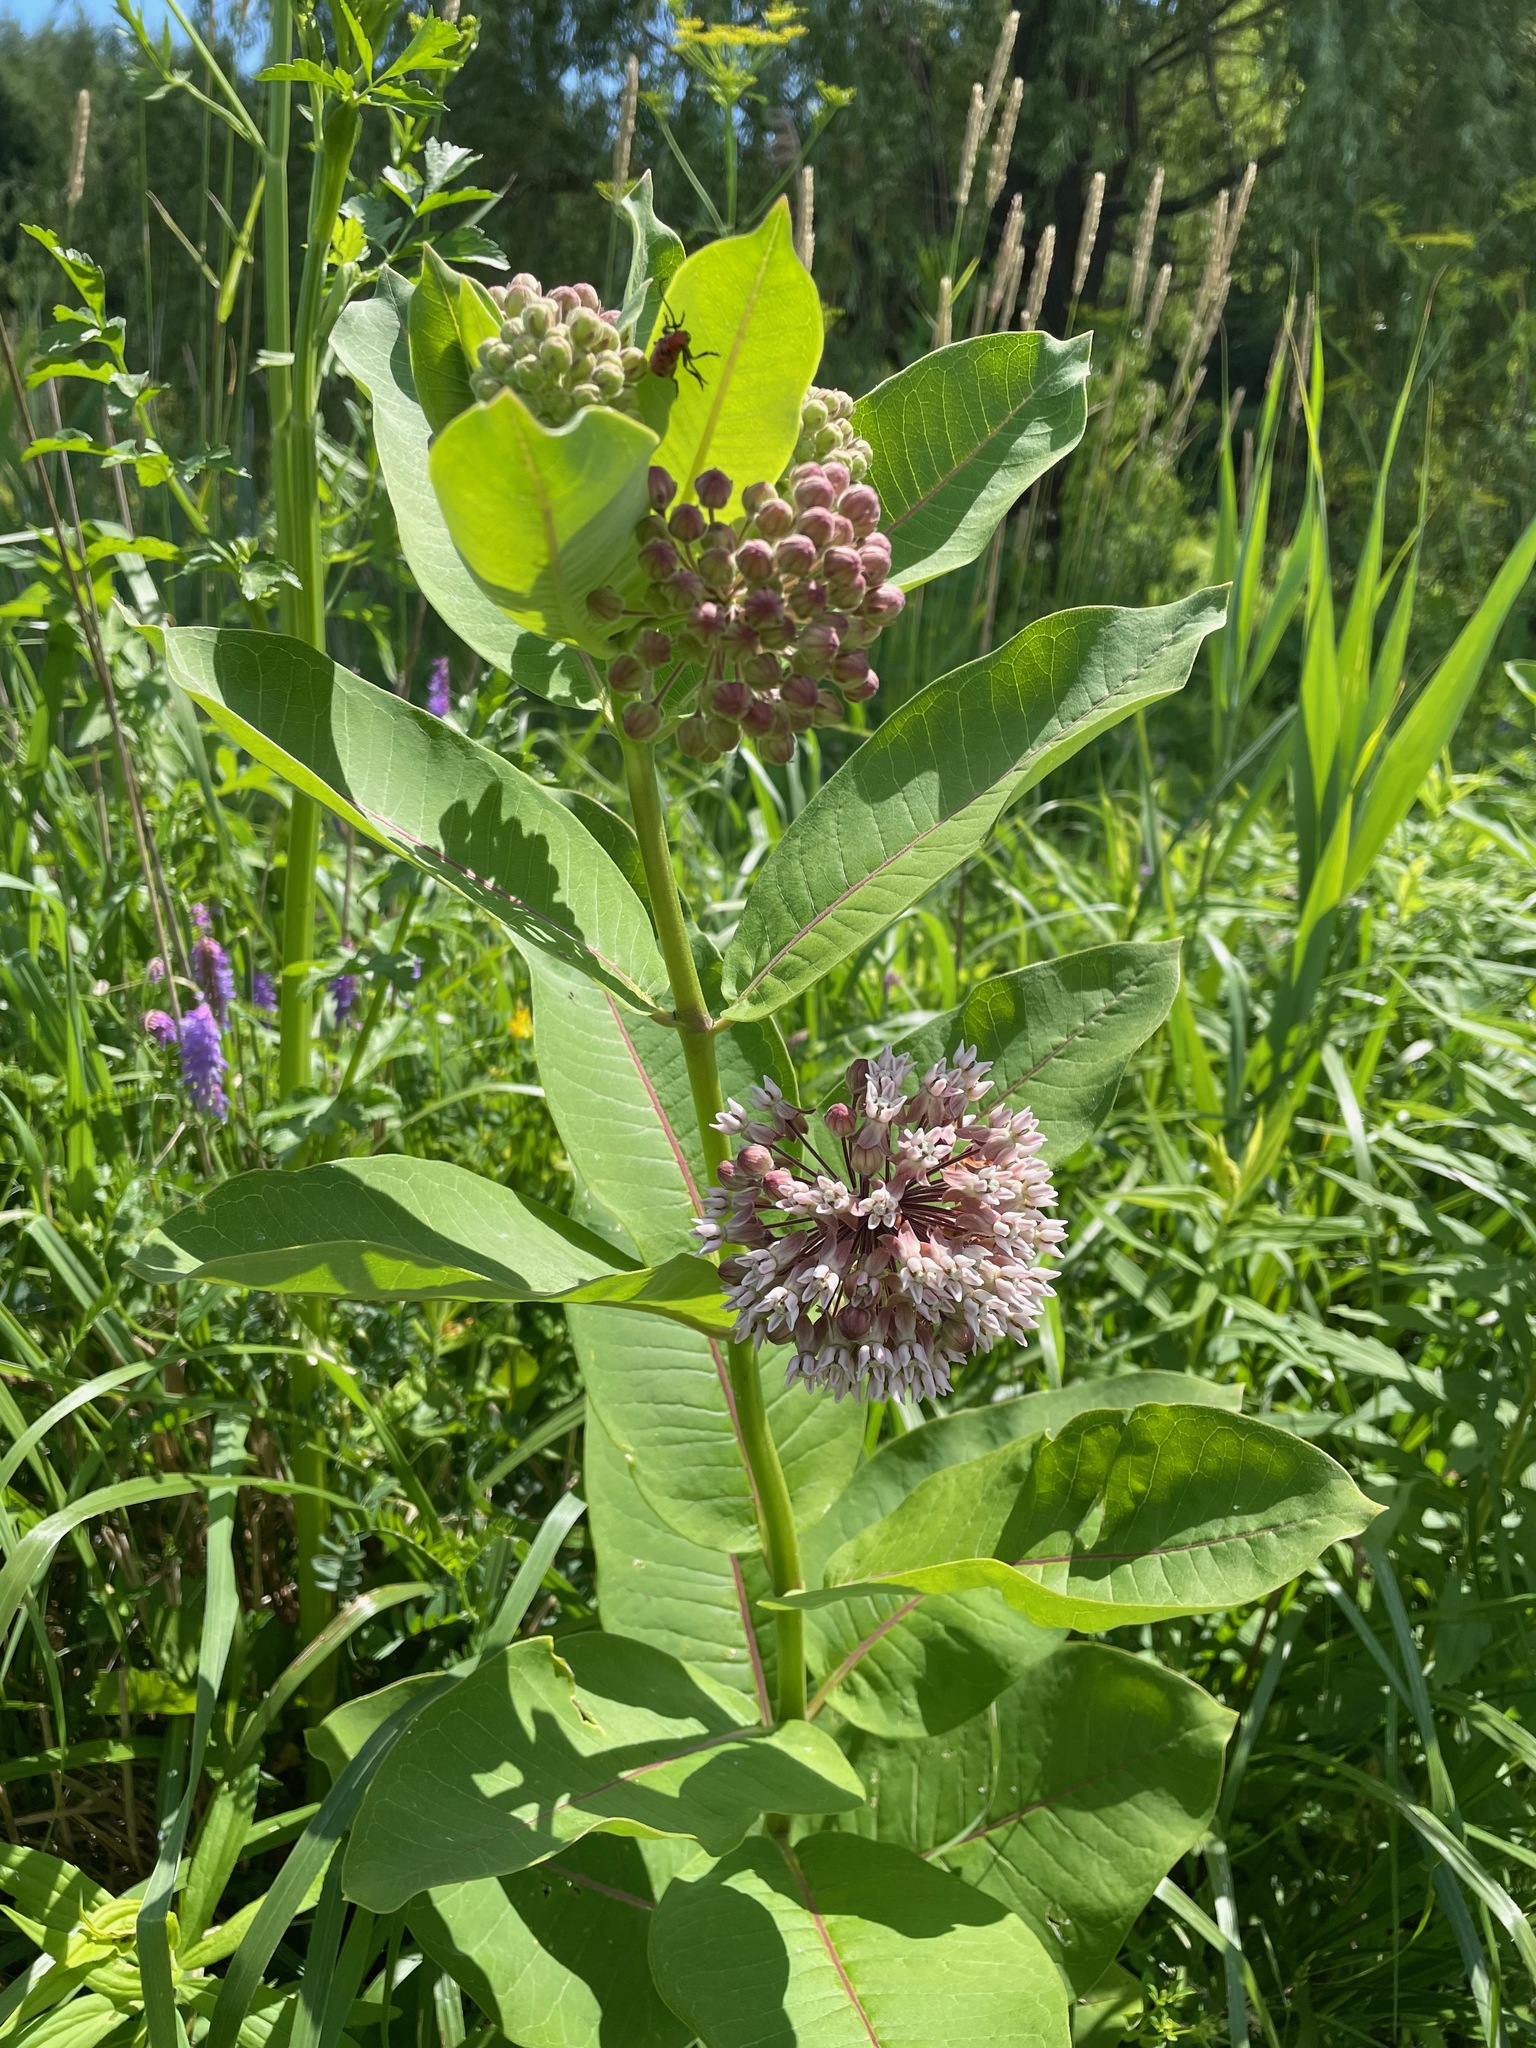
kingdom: Plantae
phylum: Tracheophyta
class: Magnoliopsida
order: Gentianales
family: Apocynaceae
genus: Asclepias
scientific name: Asclepias syriaca
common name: Common milkweed
